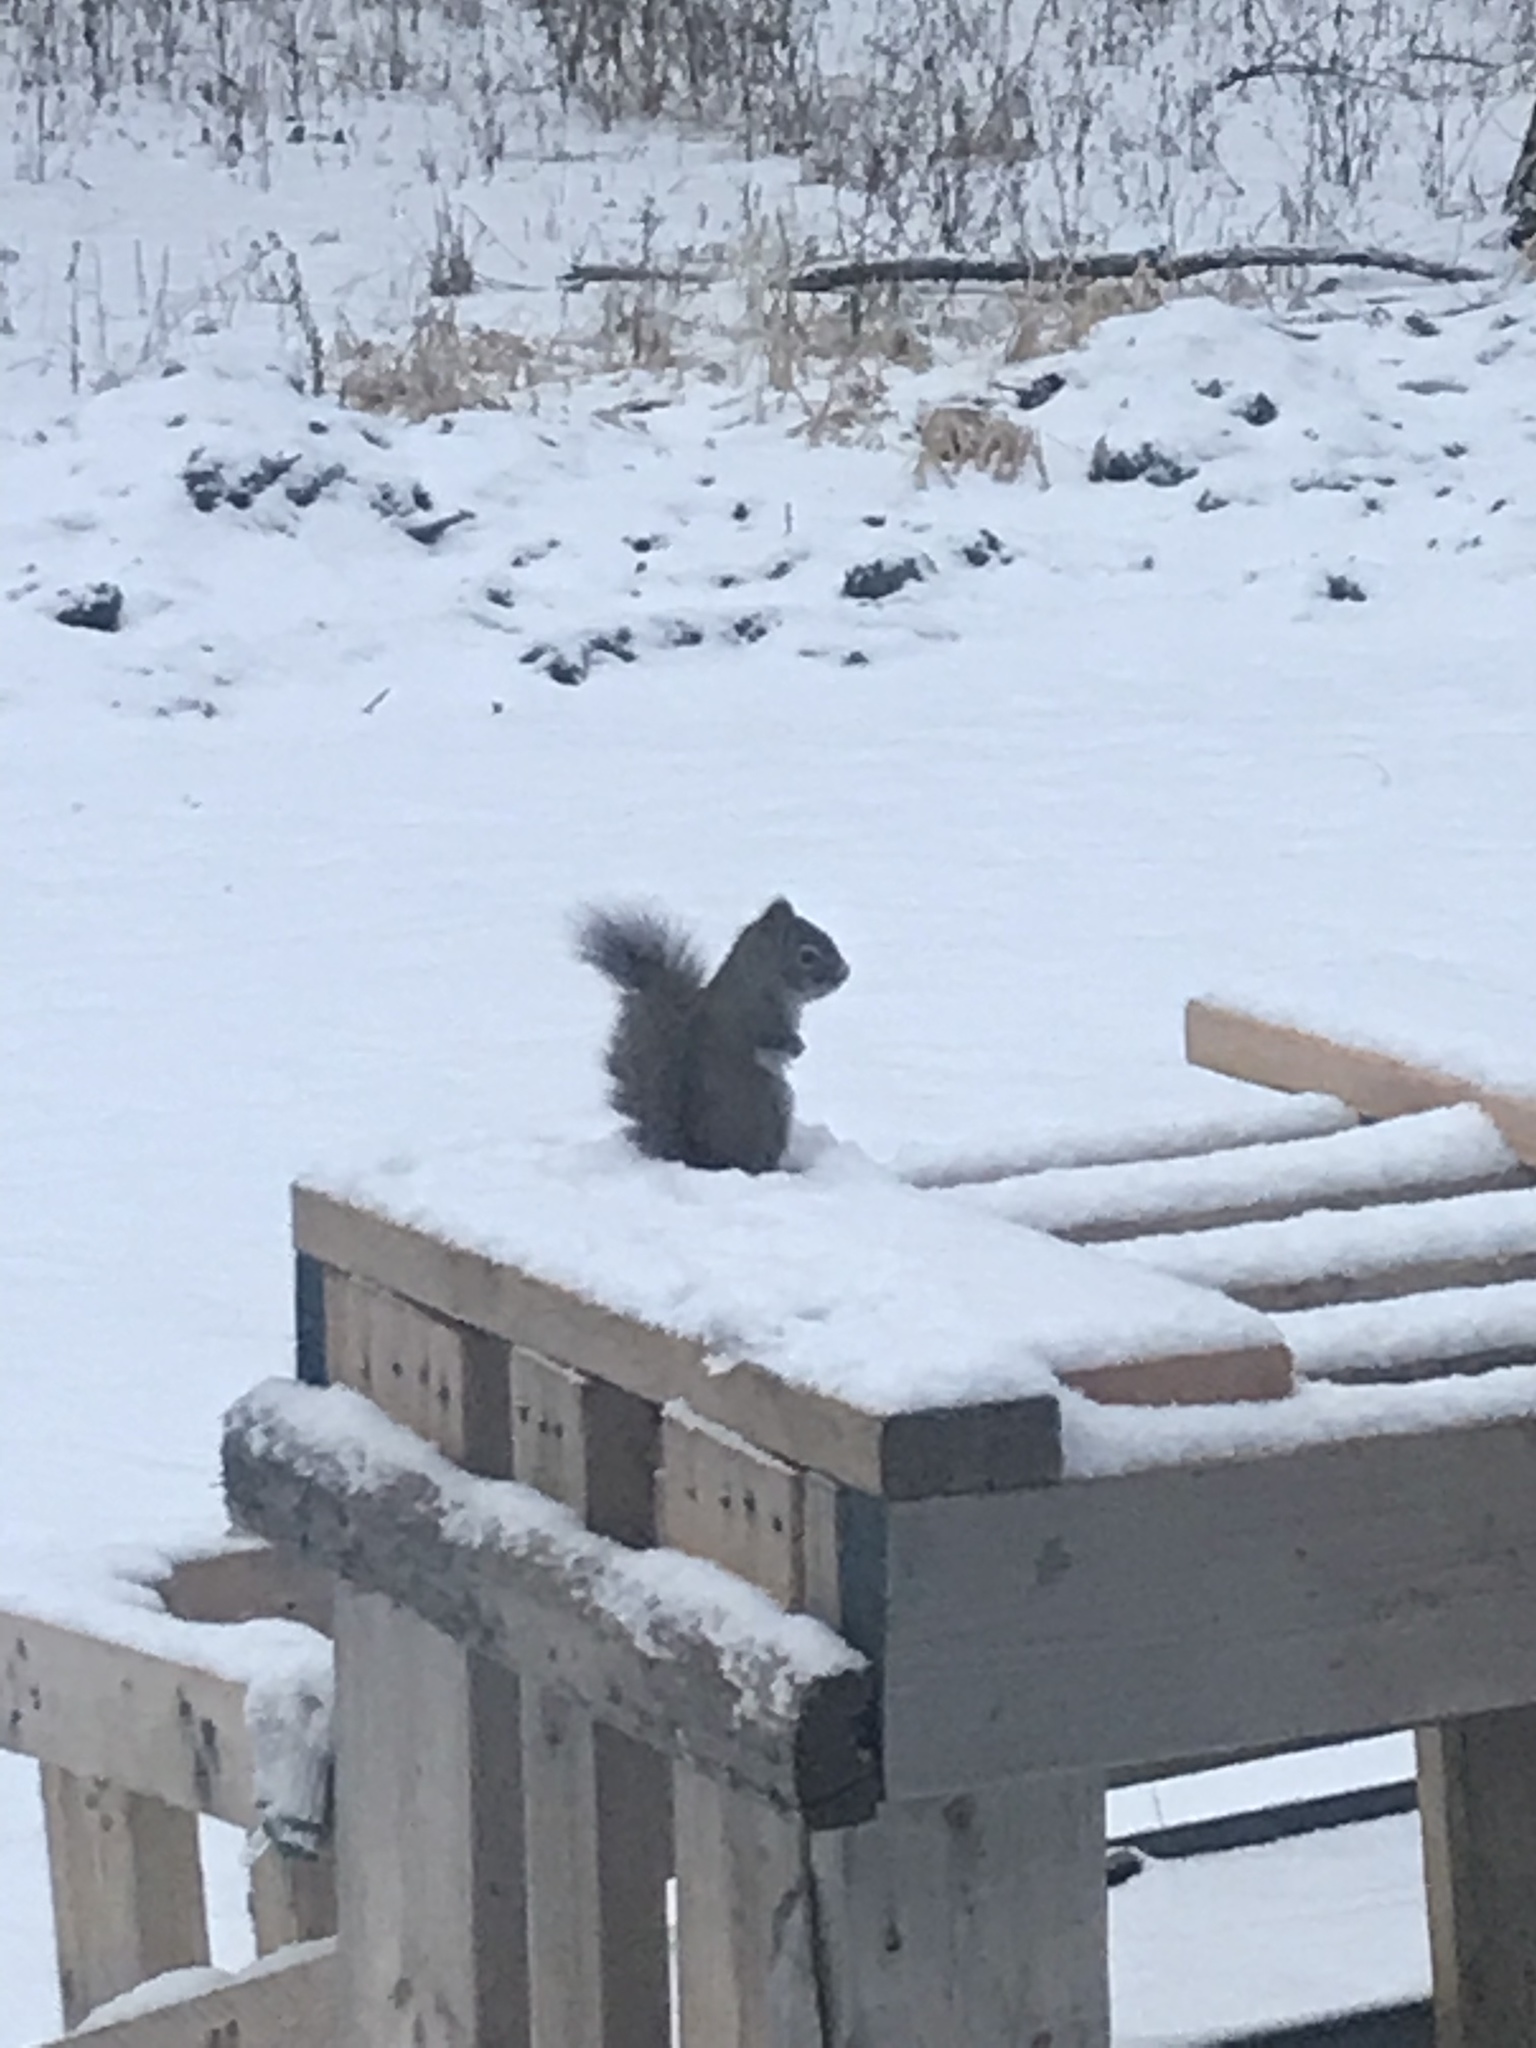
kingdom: Animalia
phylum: Chordata
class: Mammalia
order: Rodentia
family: Sciuridae
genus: Tamiasciurus
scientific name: Tamiasciurus hudsonicus
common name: Red squirrel
